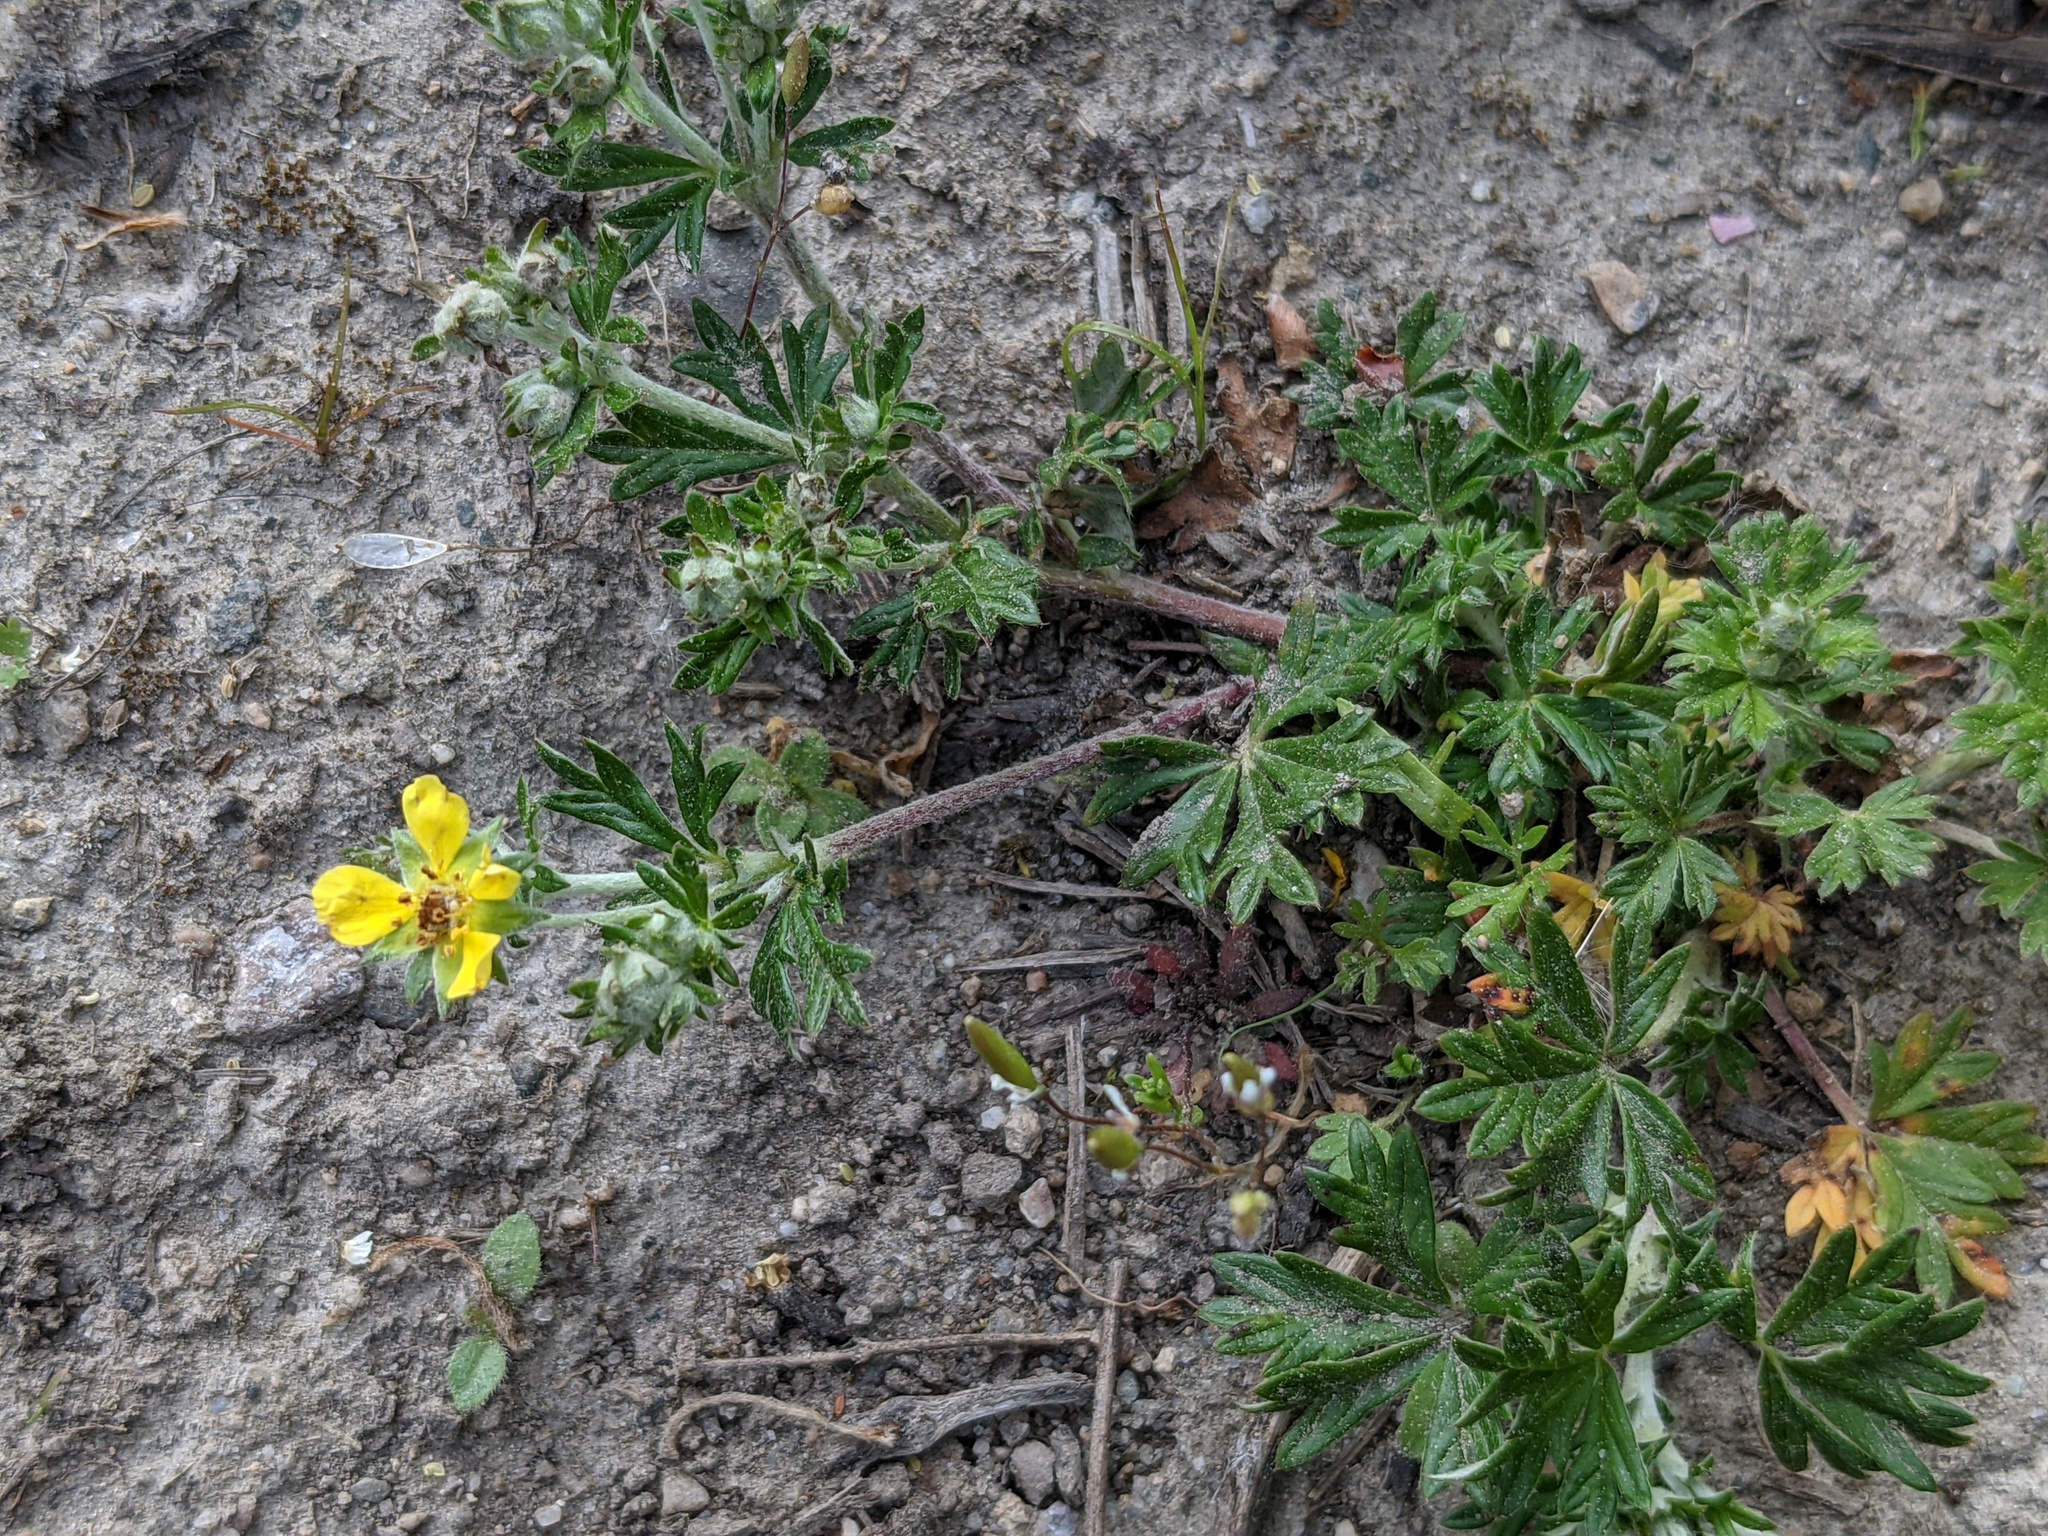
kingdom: Plantae
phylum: Tracheophyta
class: Magnoliopsida
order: Rosales
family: Rosaceae
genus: Potentilla
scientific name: Potentilla argentea
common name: Hoary cinquefoil
